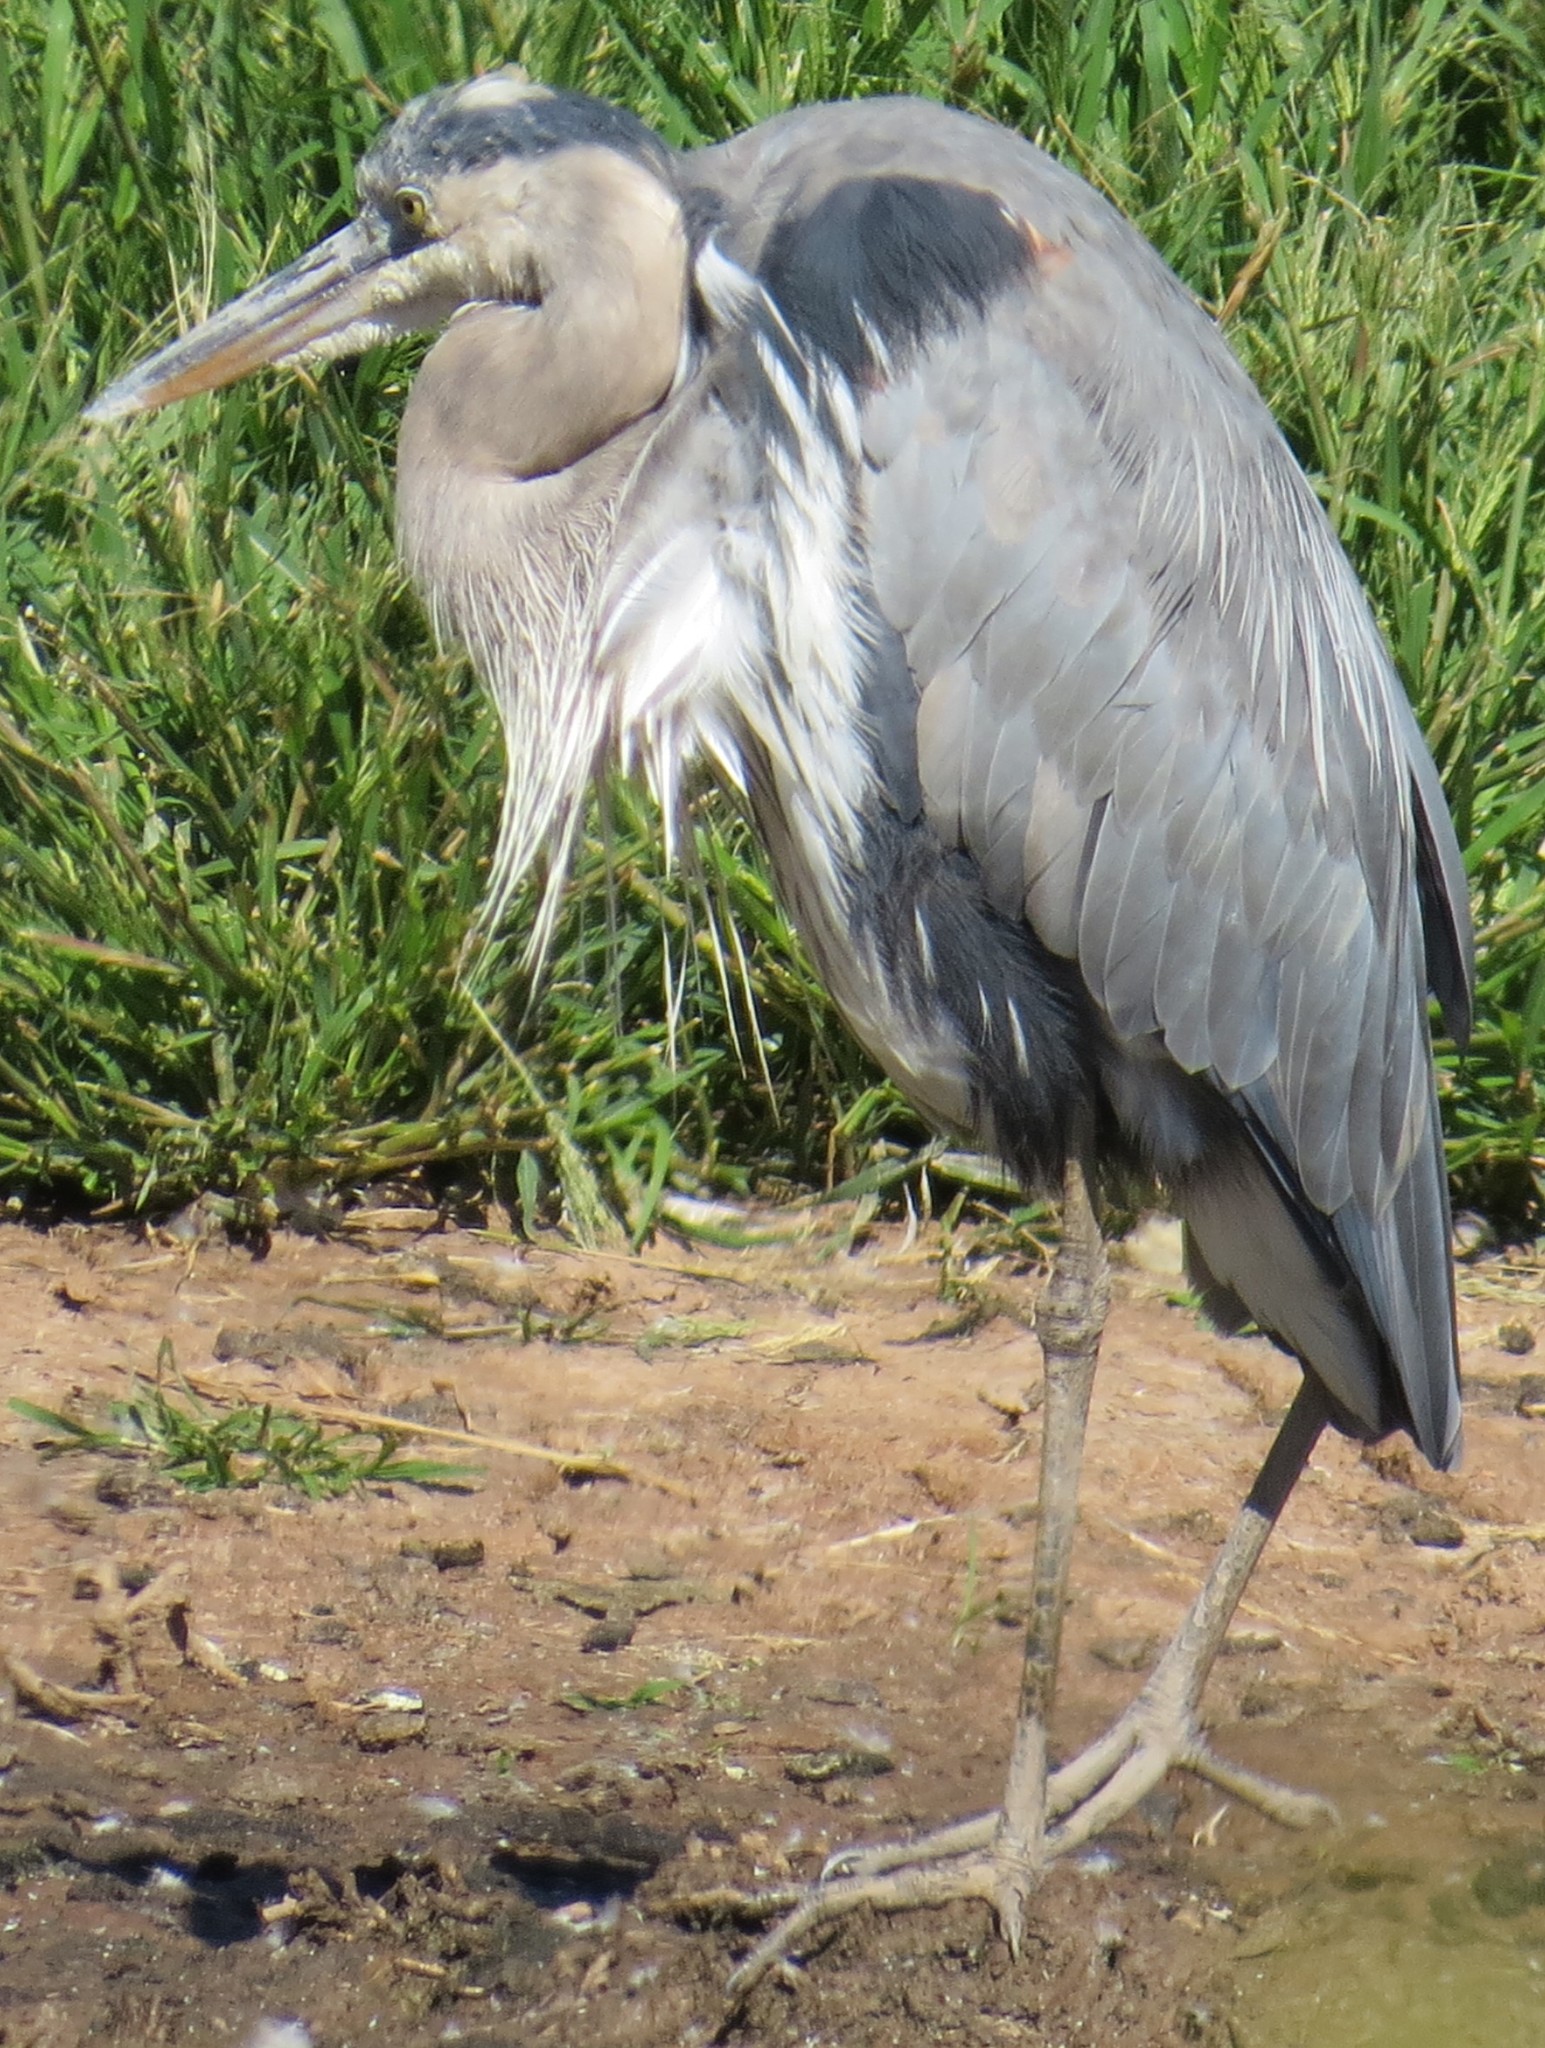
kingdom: Animalia
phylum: Chordata
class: Aves
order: Pelecaniformes
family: Ardeidae
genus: Ardea
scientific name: Ardea herodias
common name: Great blue heron
